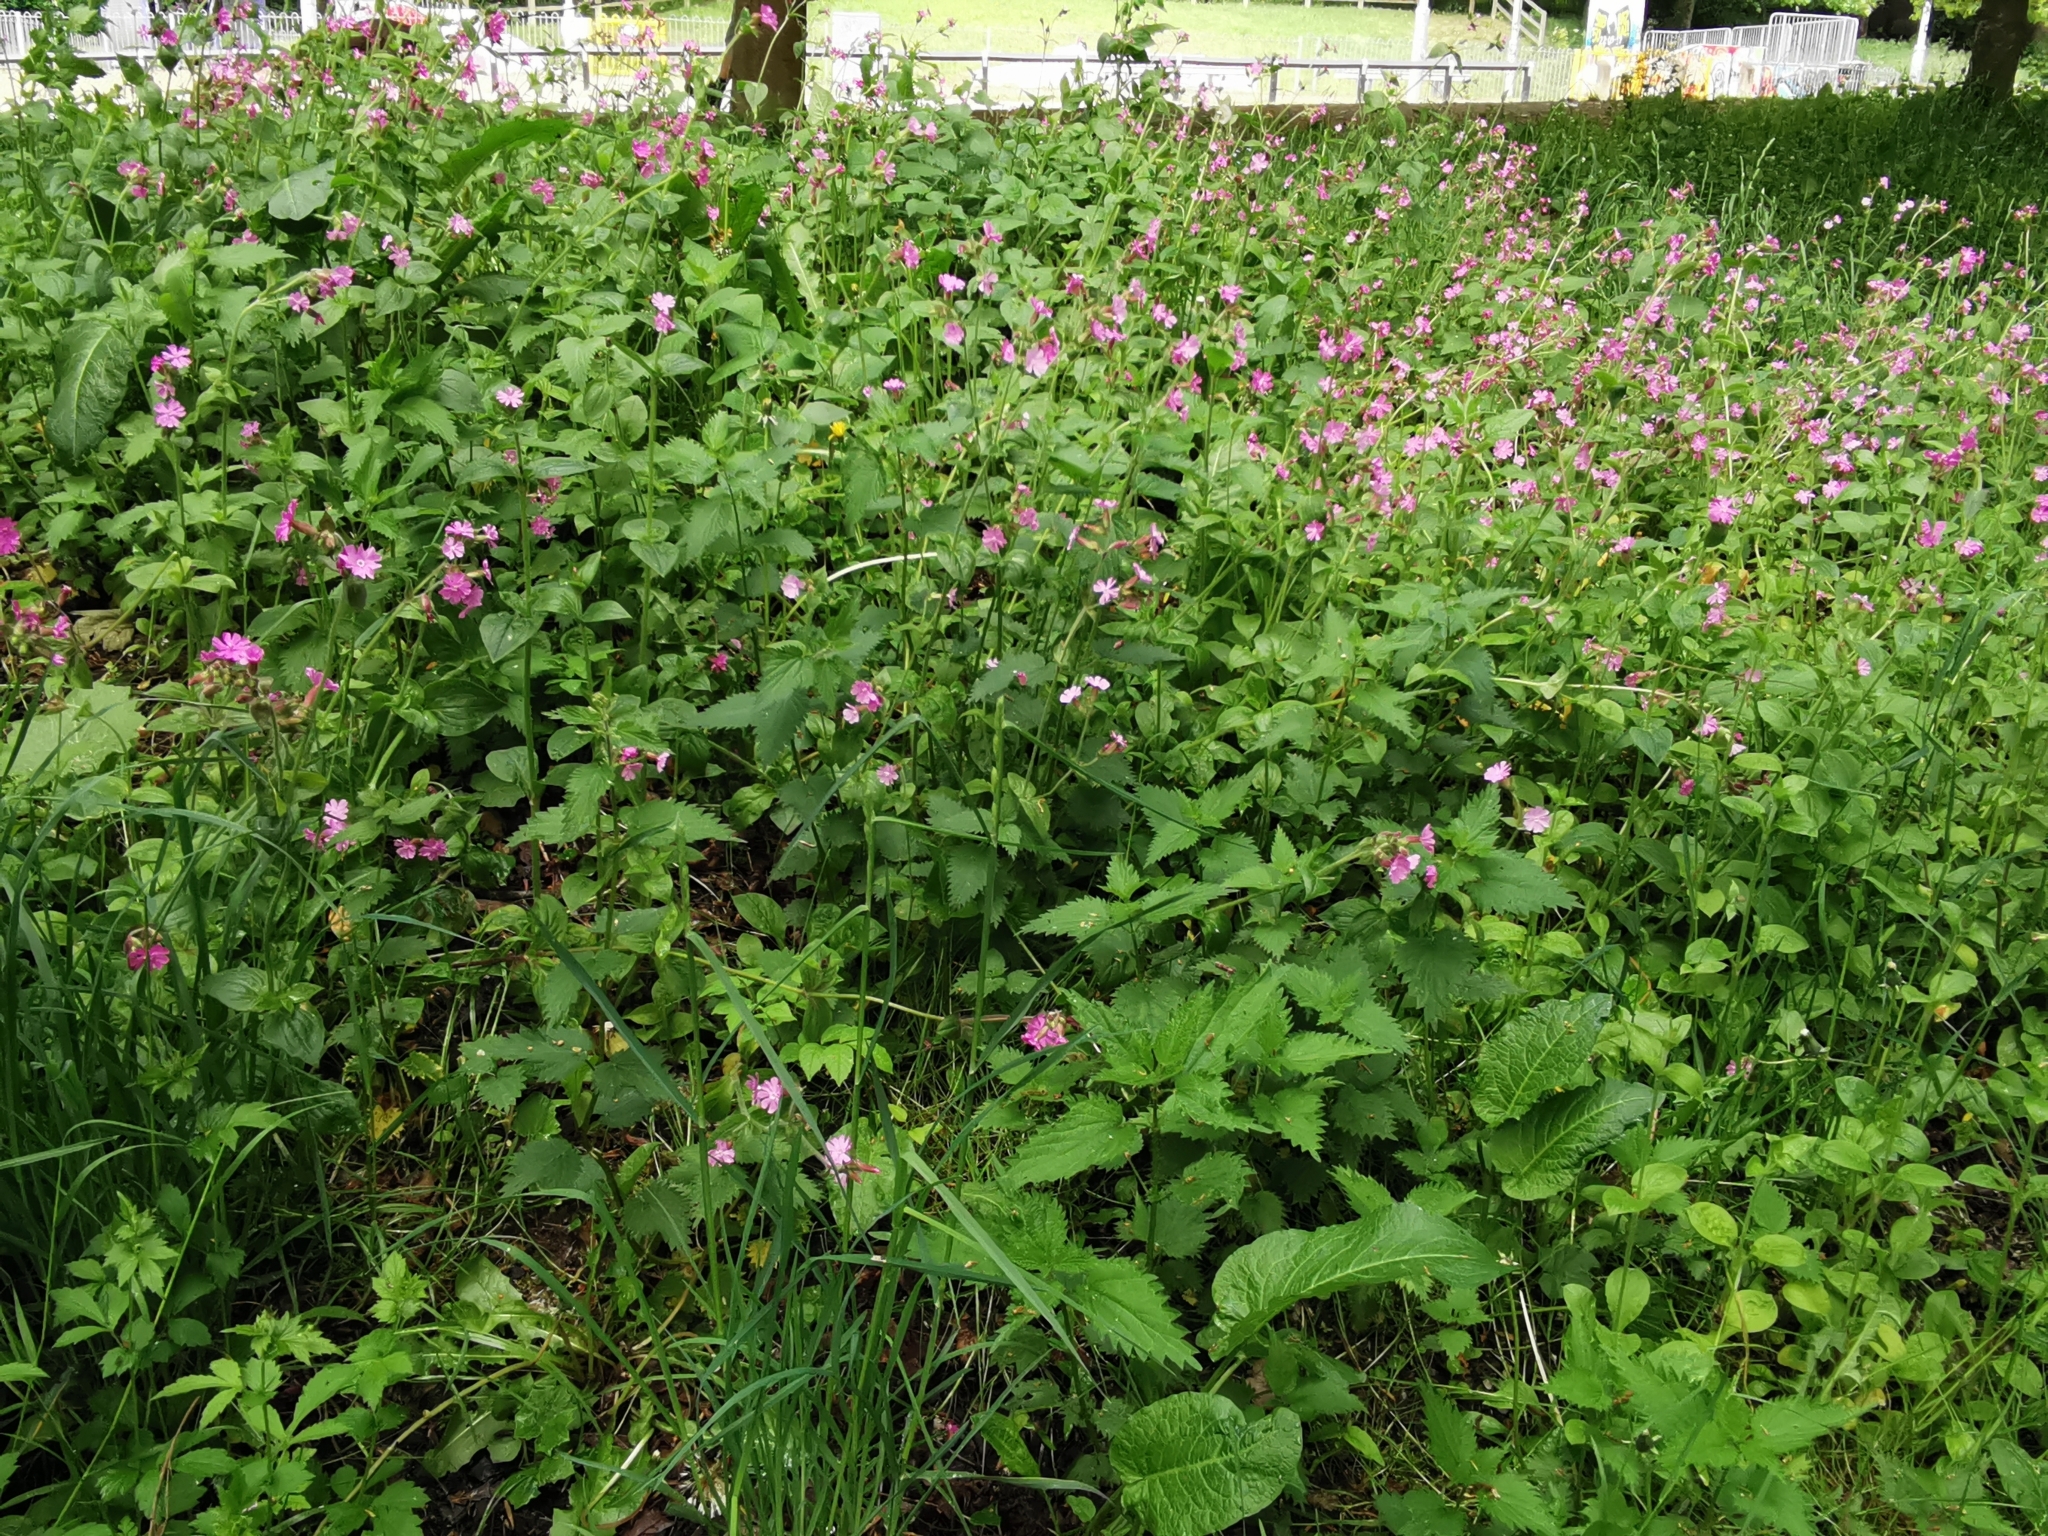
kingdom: Plantae
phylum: Tracheophyta
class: Magnoliopsida
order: Caryophyllales
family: Caryophyllaceae
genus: Silene
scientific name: Silene dioica
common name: Red campion
